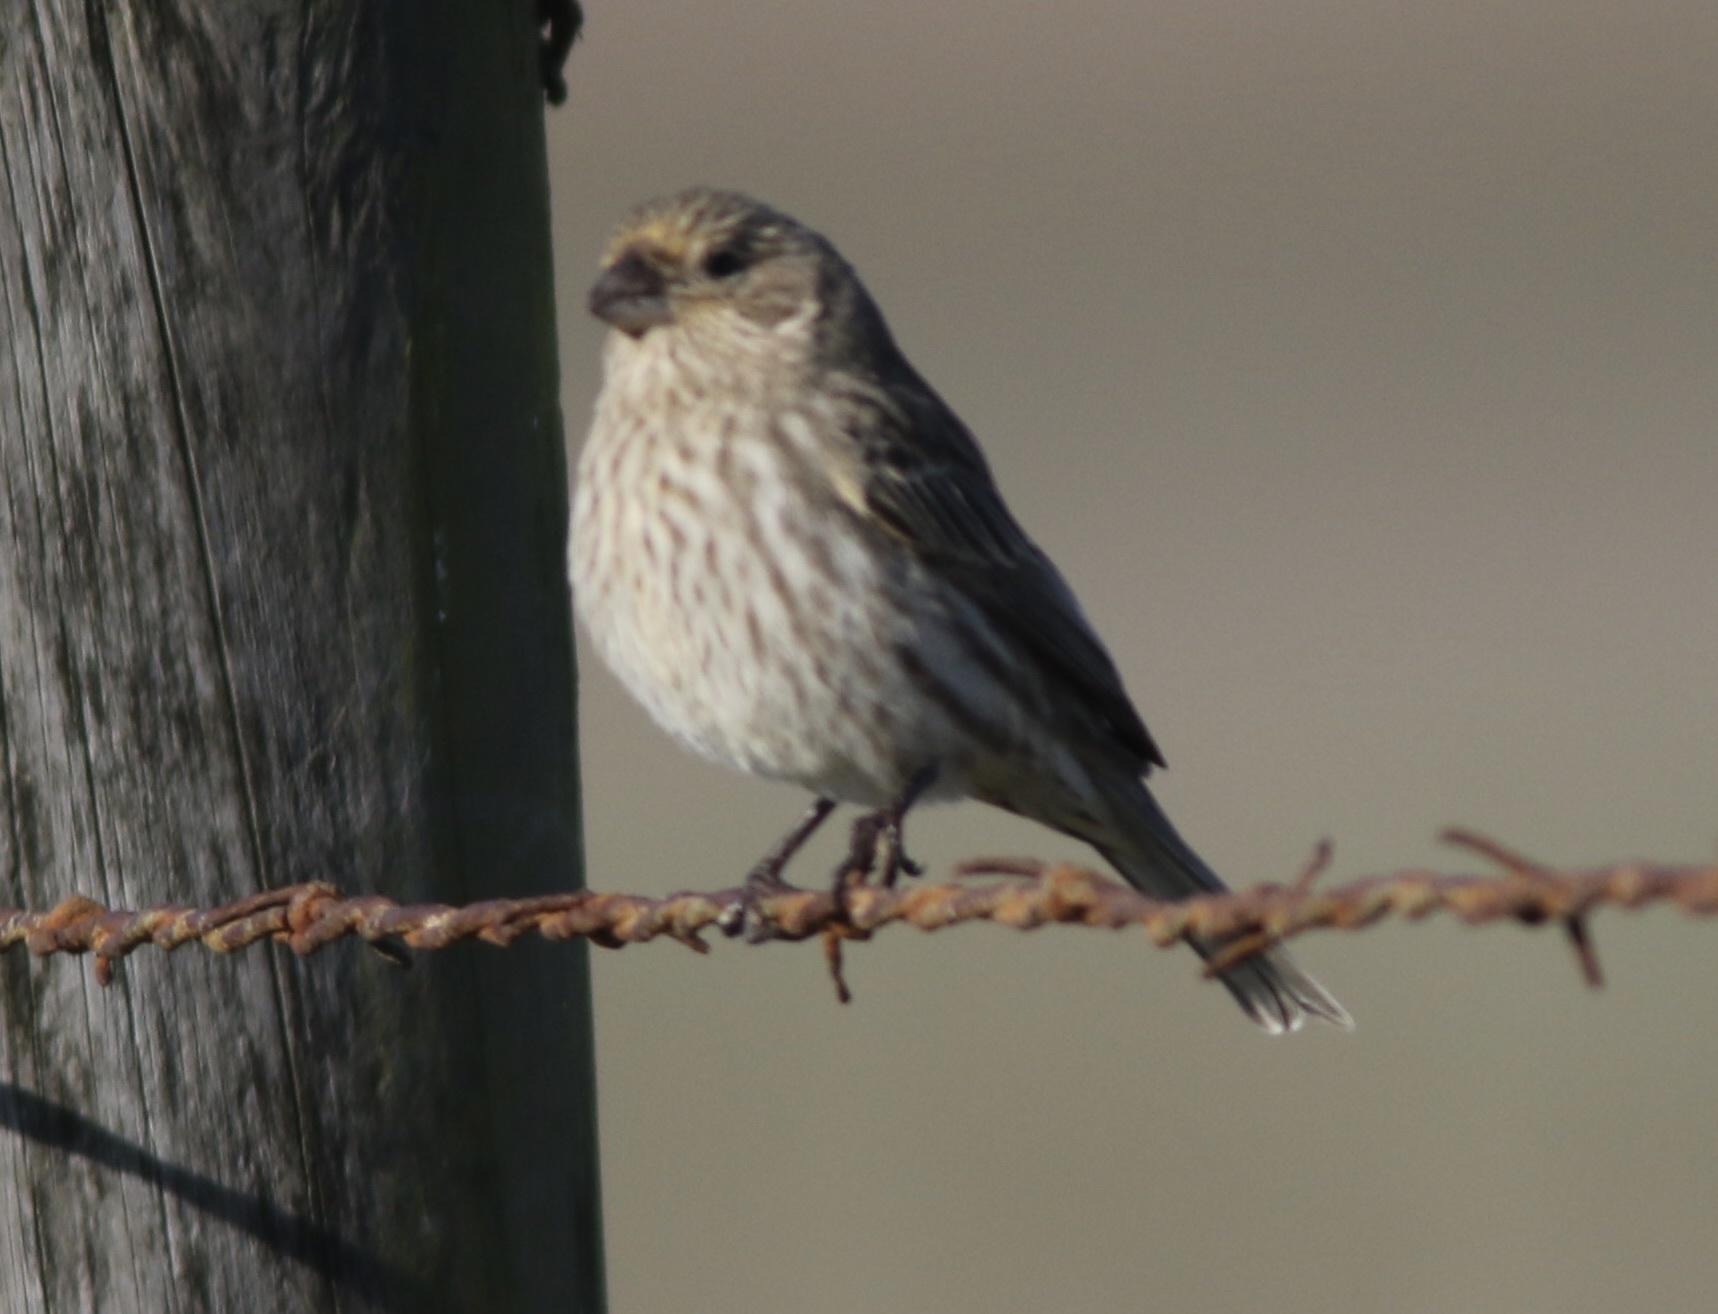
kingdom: Animalia
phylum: Chordata
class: Aves
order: Passeriformes
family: Fringillidae
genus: Haemorhous
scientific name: Haemorhous mexicanus
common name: House finch
